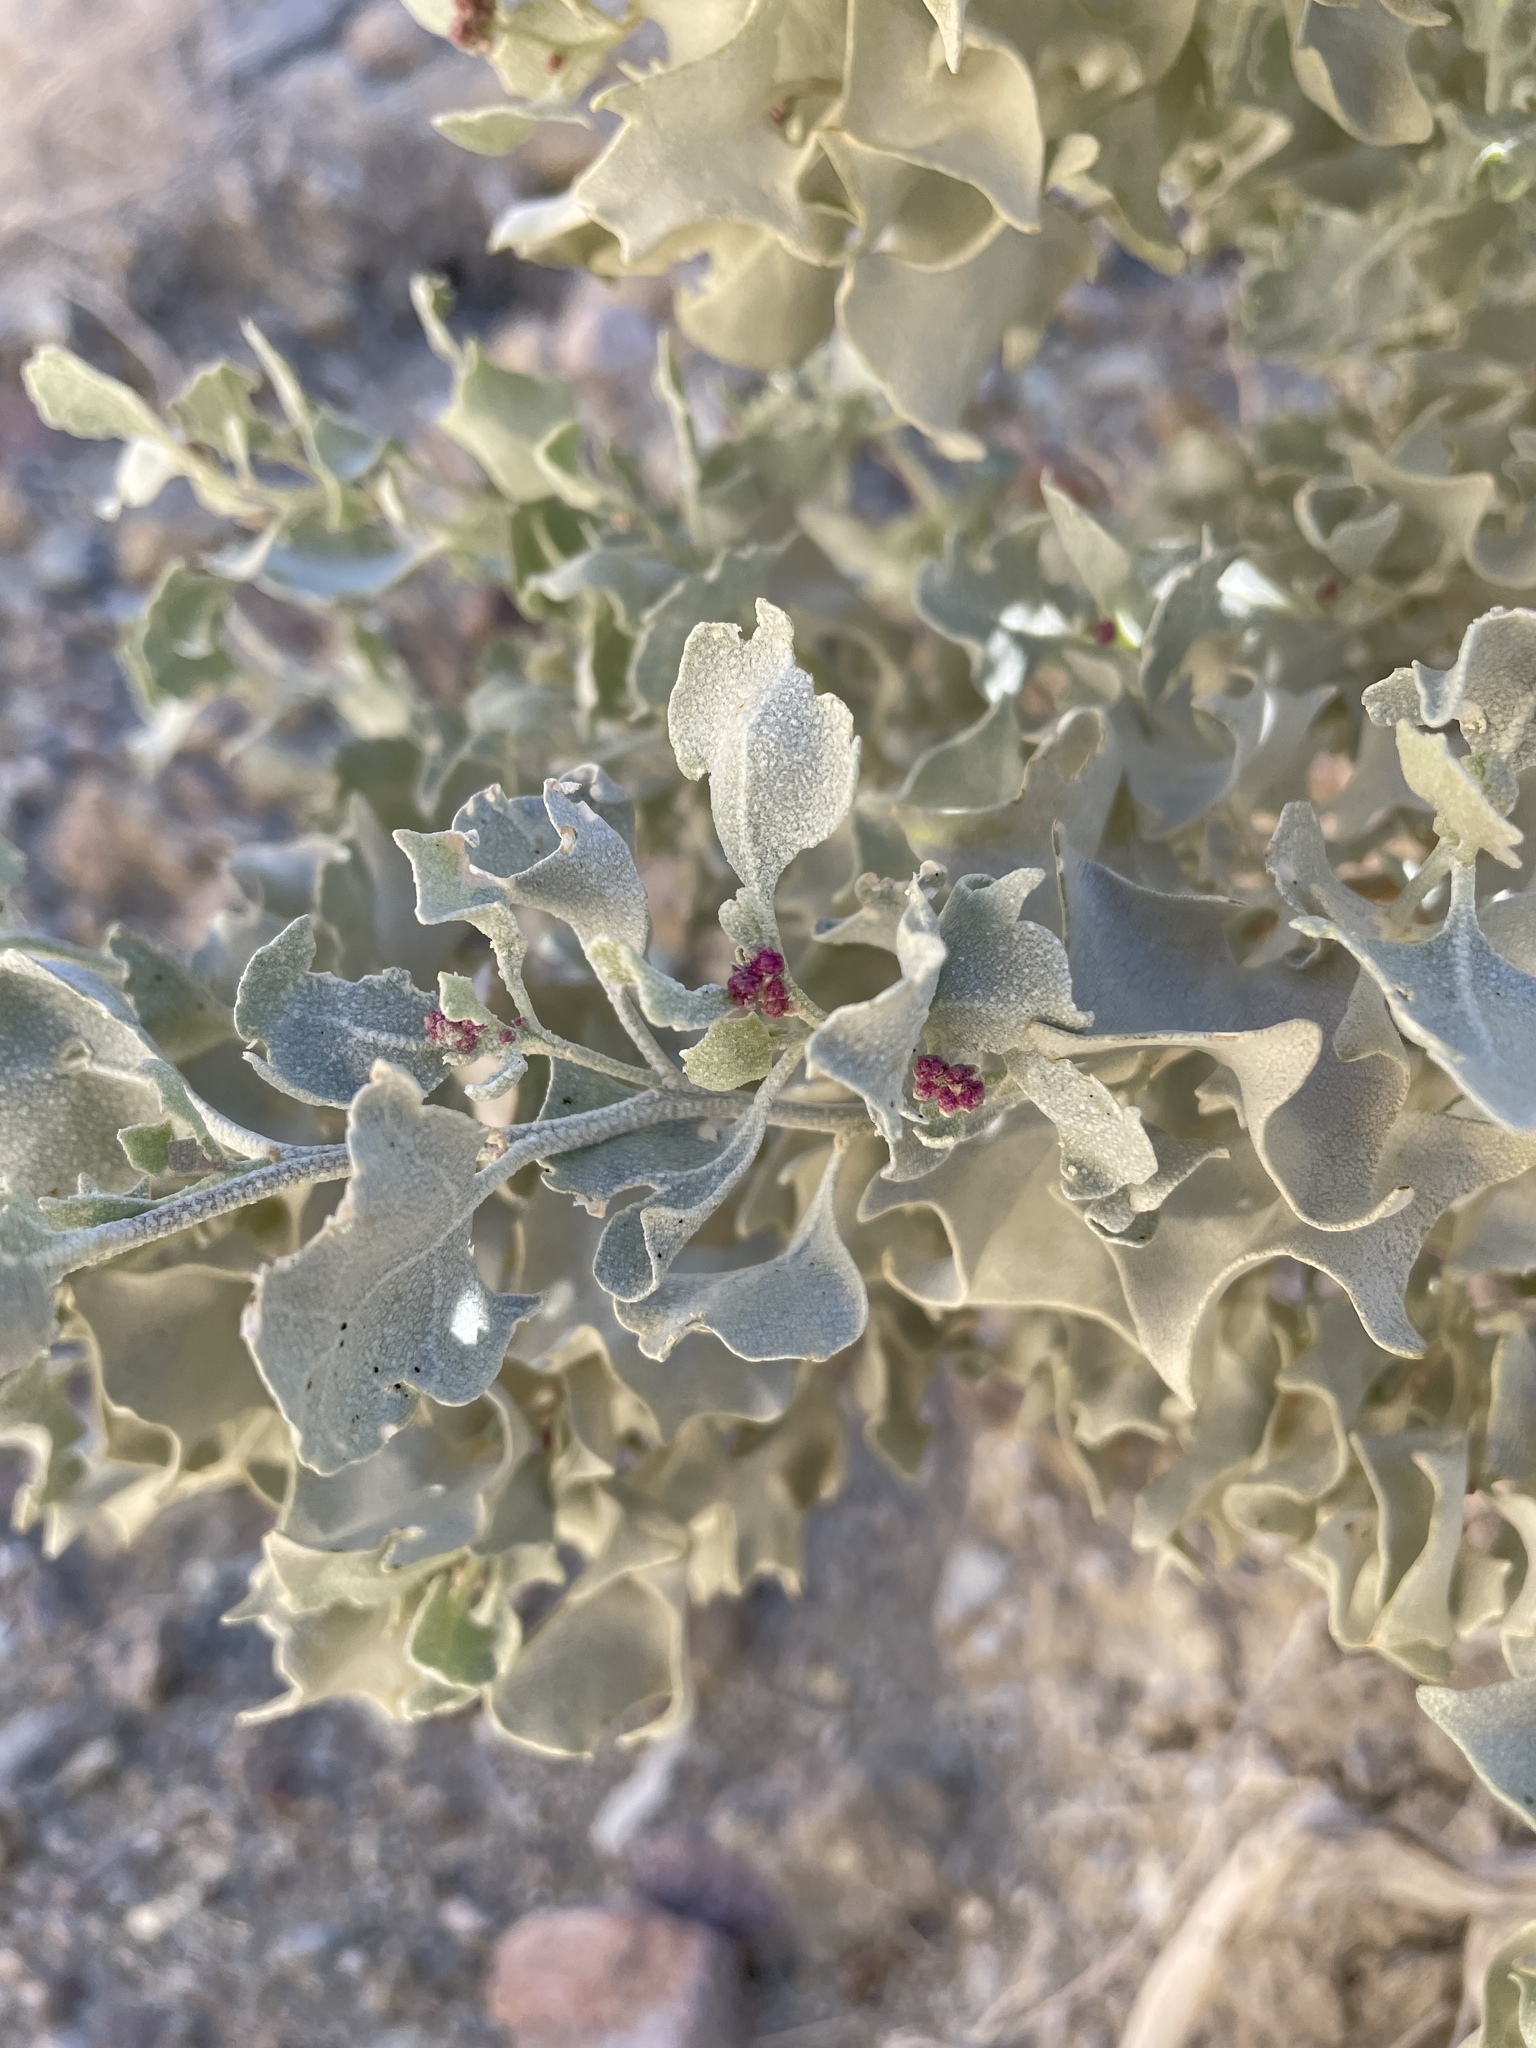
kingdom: Plantae
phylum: Tracheophyta
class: Magnoliopsida
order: Caryophyllales
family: Amaranthaceae
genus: Atriplex
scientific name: Atriplex hymenelytra
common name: Desert-holly
